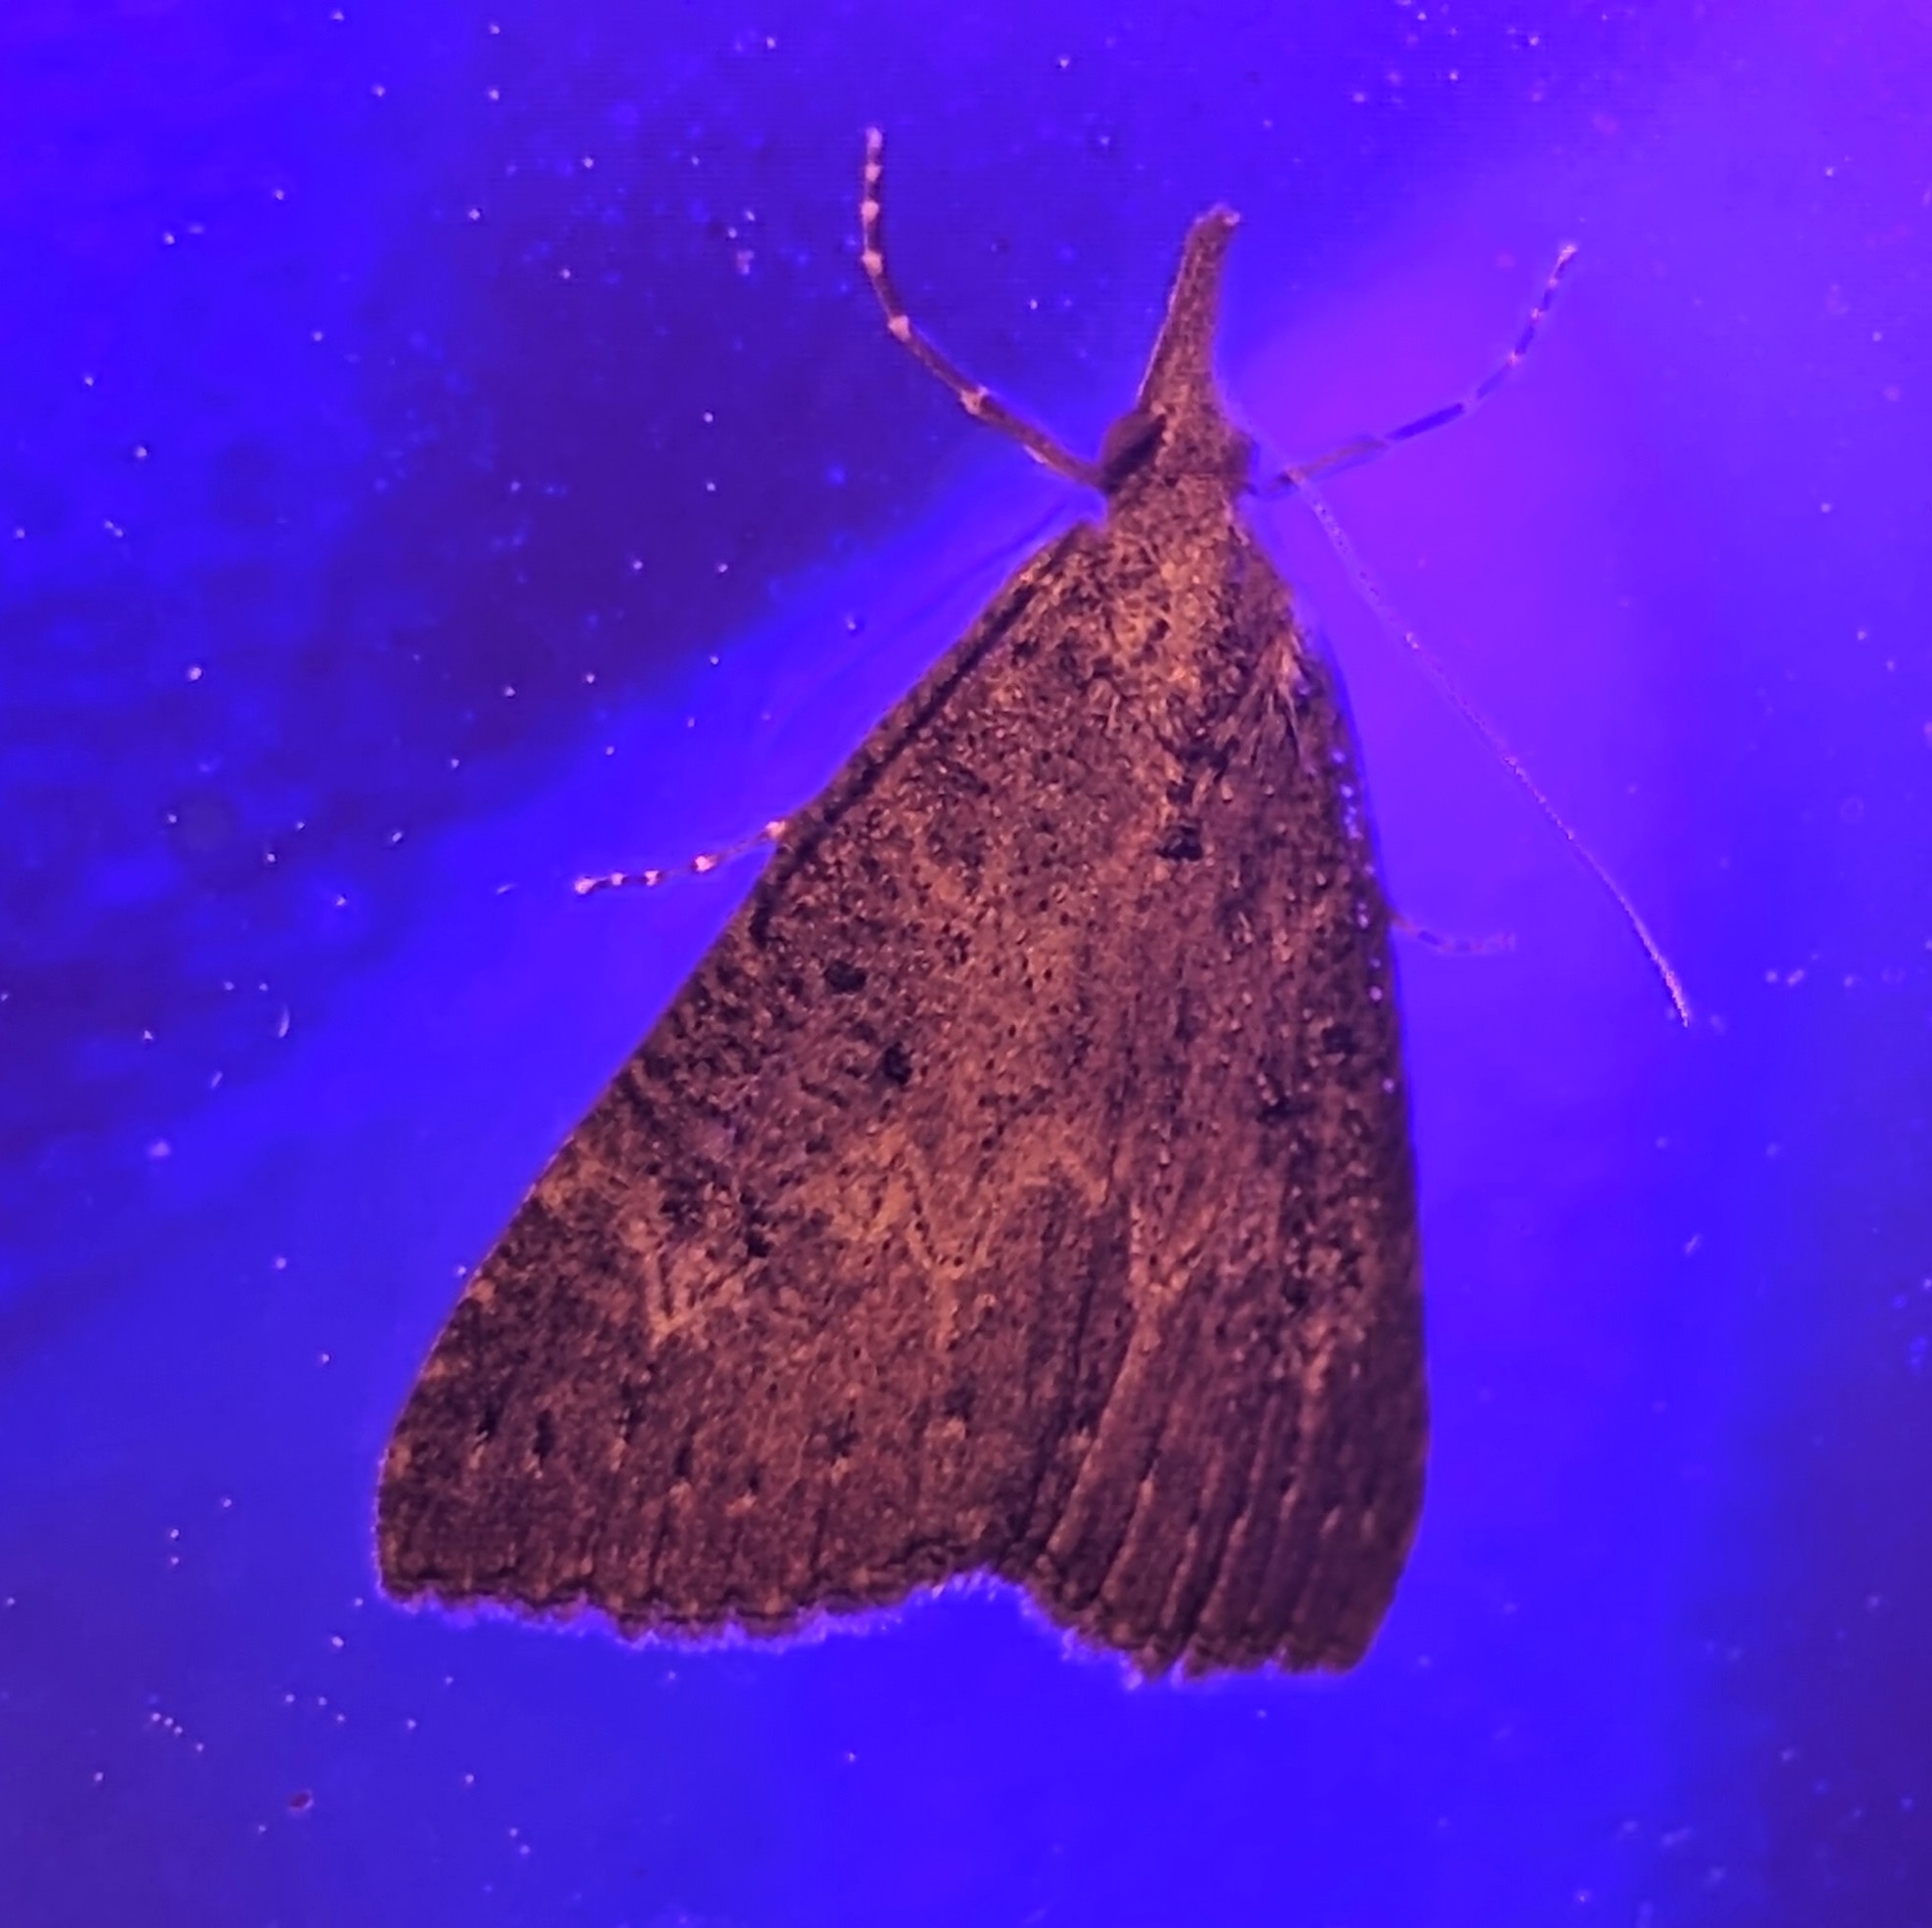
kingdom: Animalia
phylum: Arthropoda
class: Insecta
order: Lepidoptera
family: Erebidae
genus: Hypena
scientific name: Hypena humuli
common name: Hop vine snout
